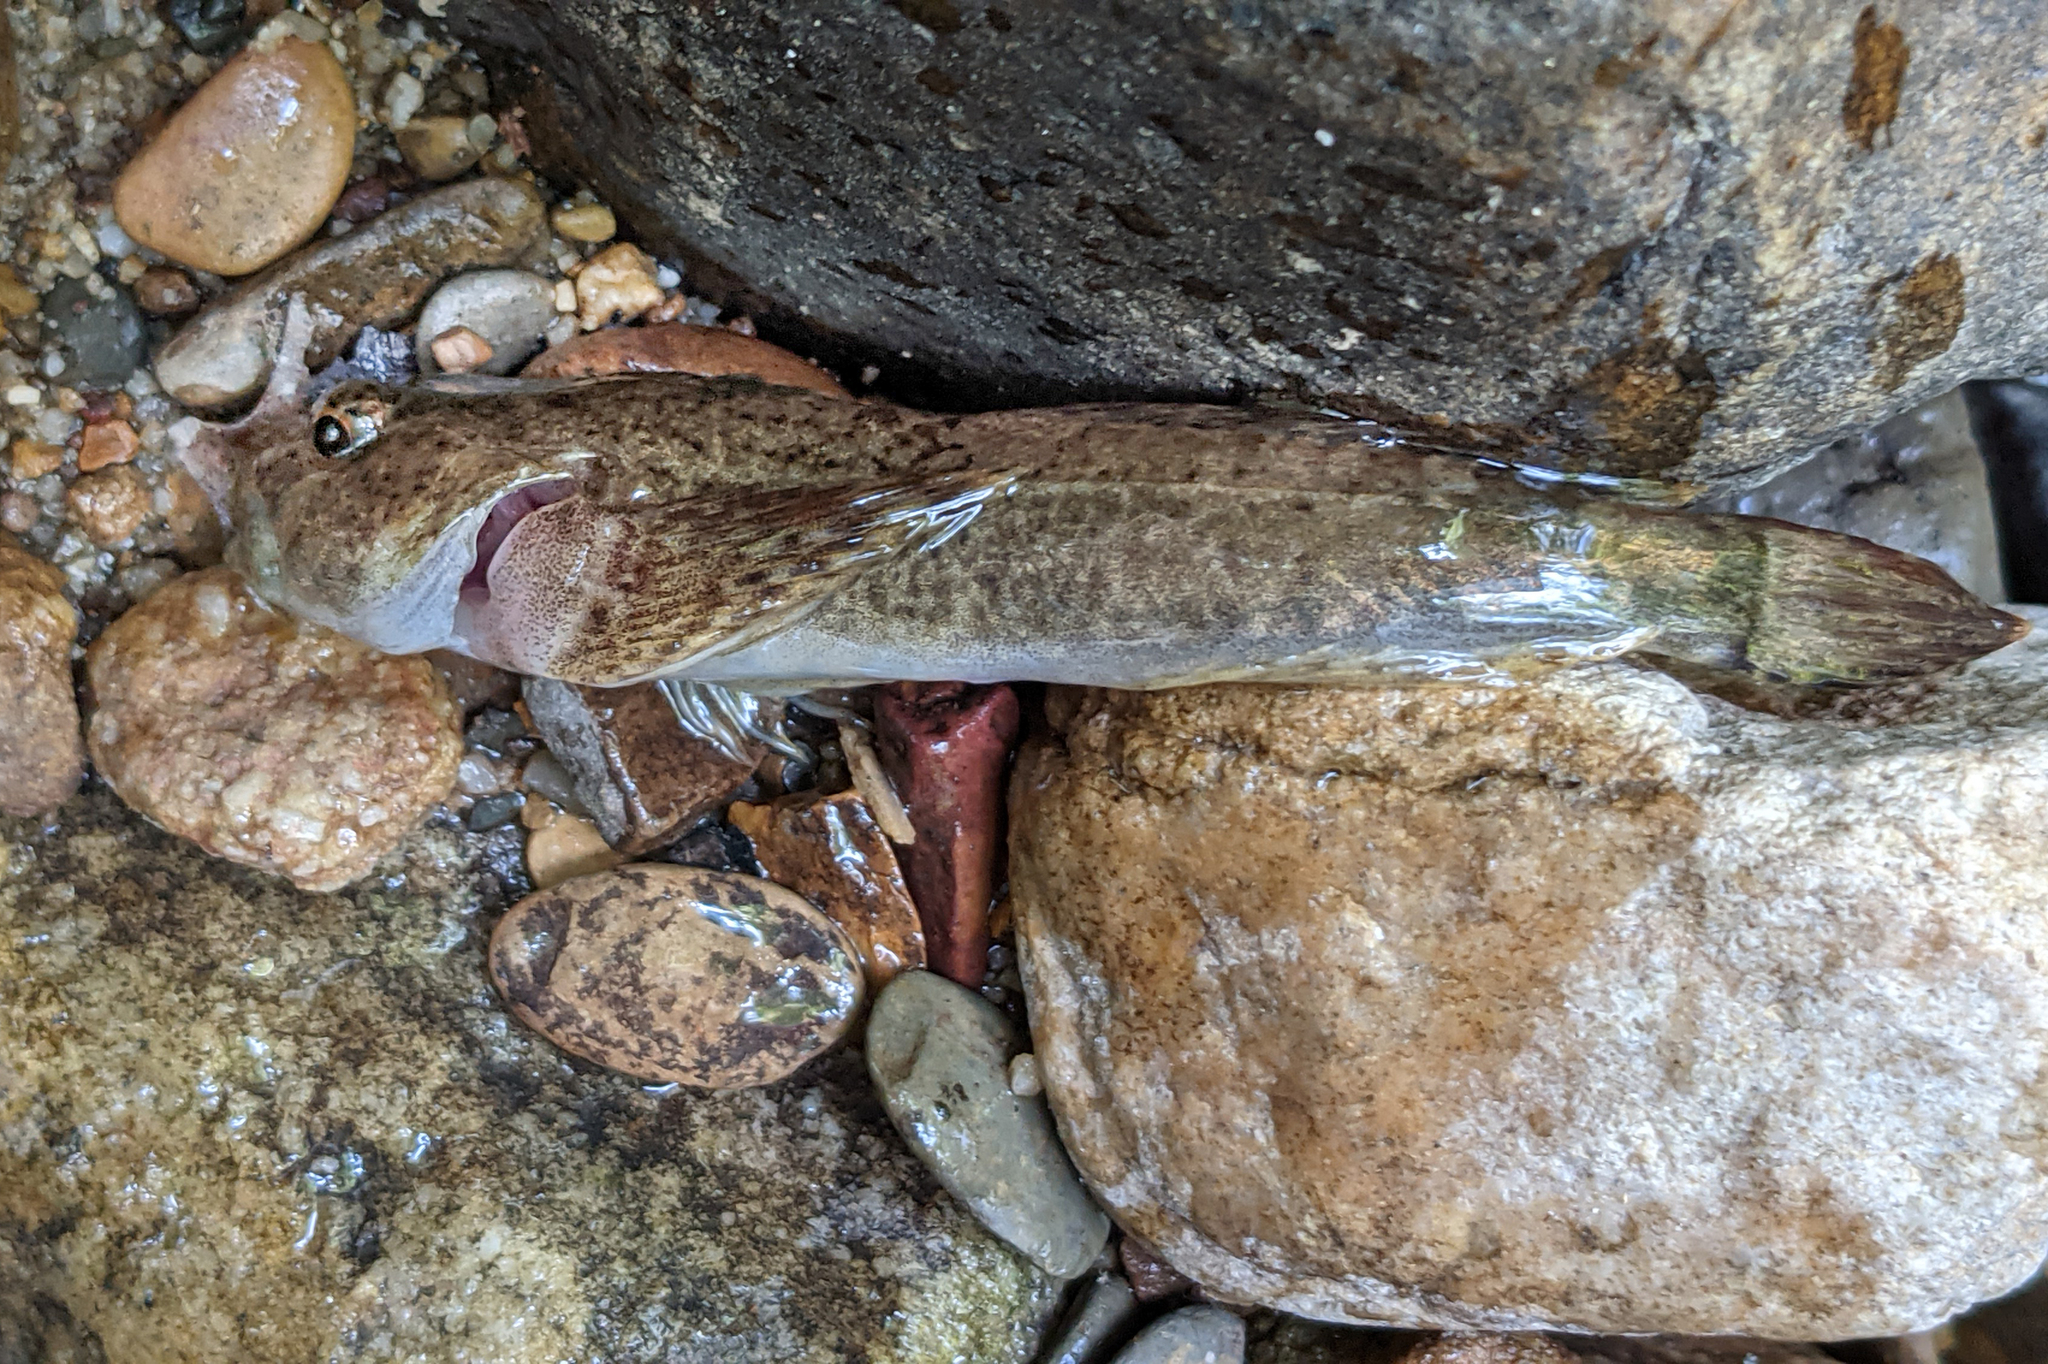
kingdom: Animalia
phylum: Chordata
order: Scorpaeniformes
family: Cottidae
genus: Cottus
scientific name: Cottus bairdii
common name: Mottled sculpin
